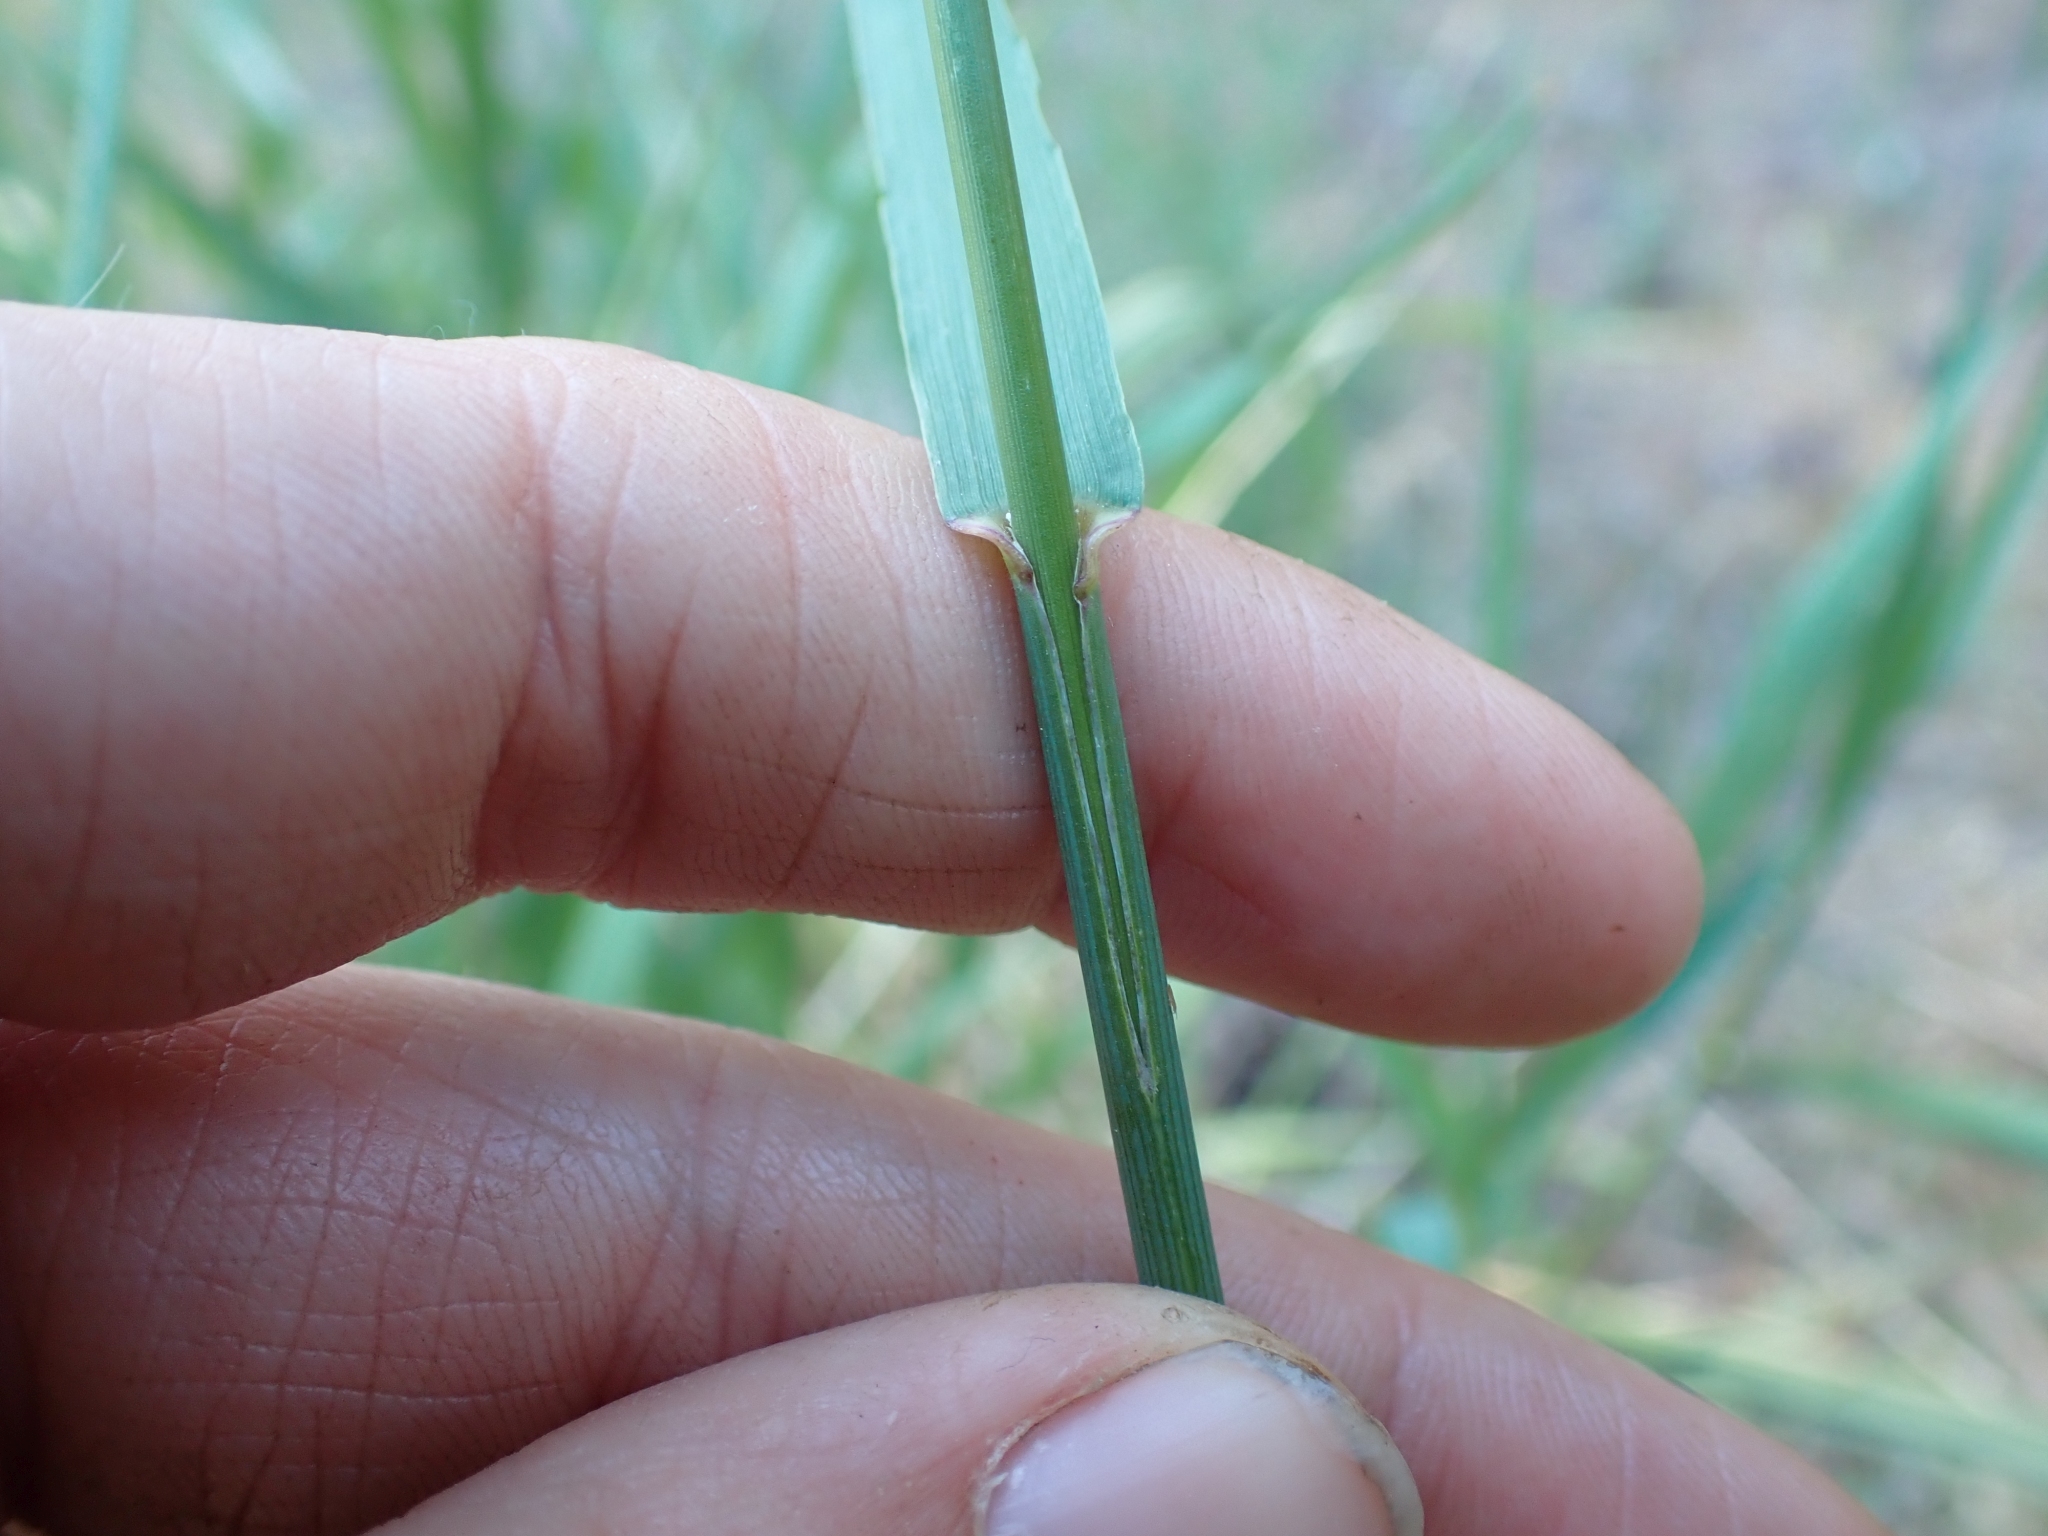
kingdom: Plantae
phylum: Tracheophyta
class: Liliopsida
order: Poales
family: Poaceae
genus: Bromus
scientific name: Bromus inermis
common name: Smooth brome
